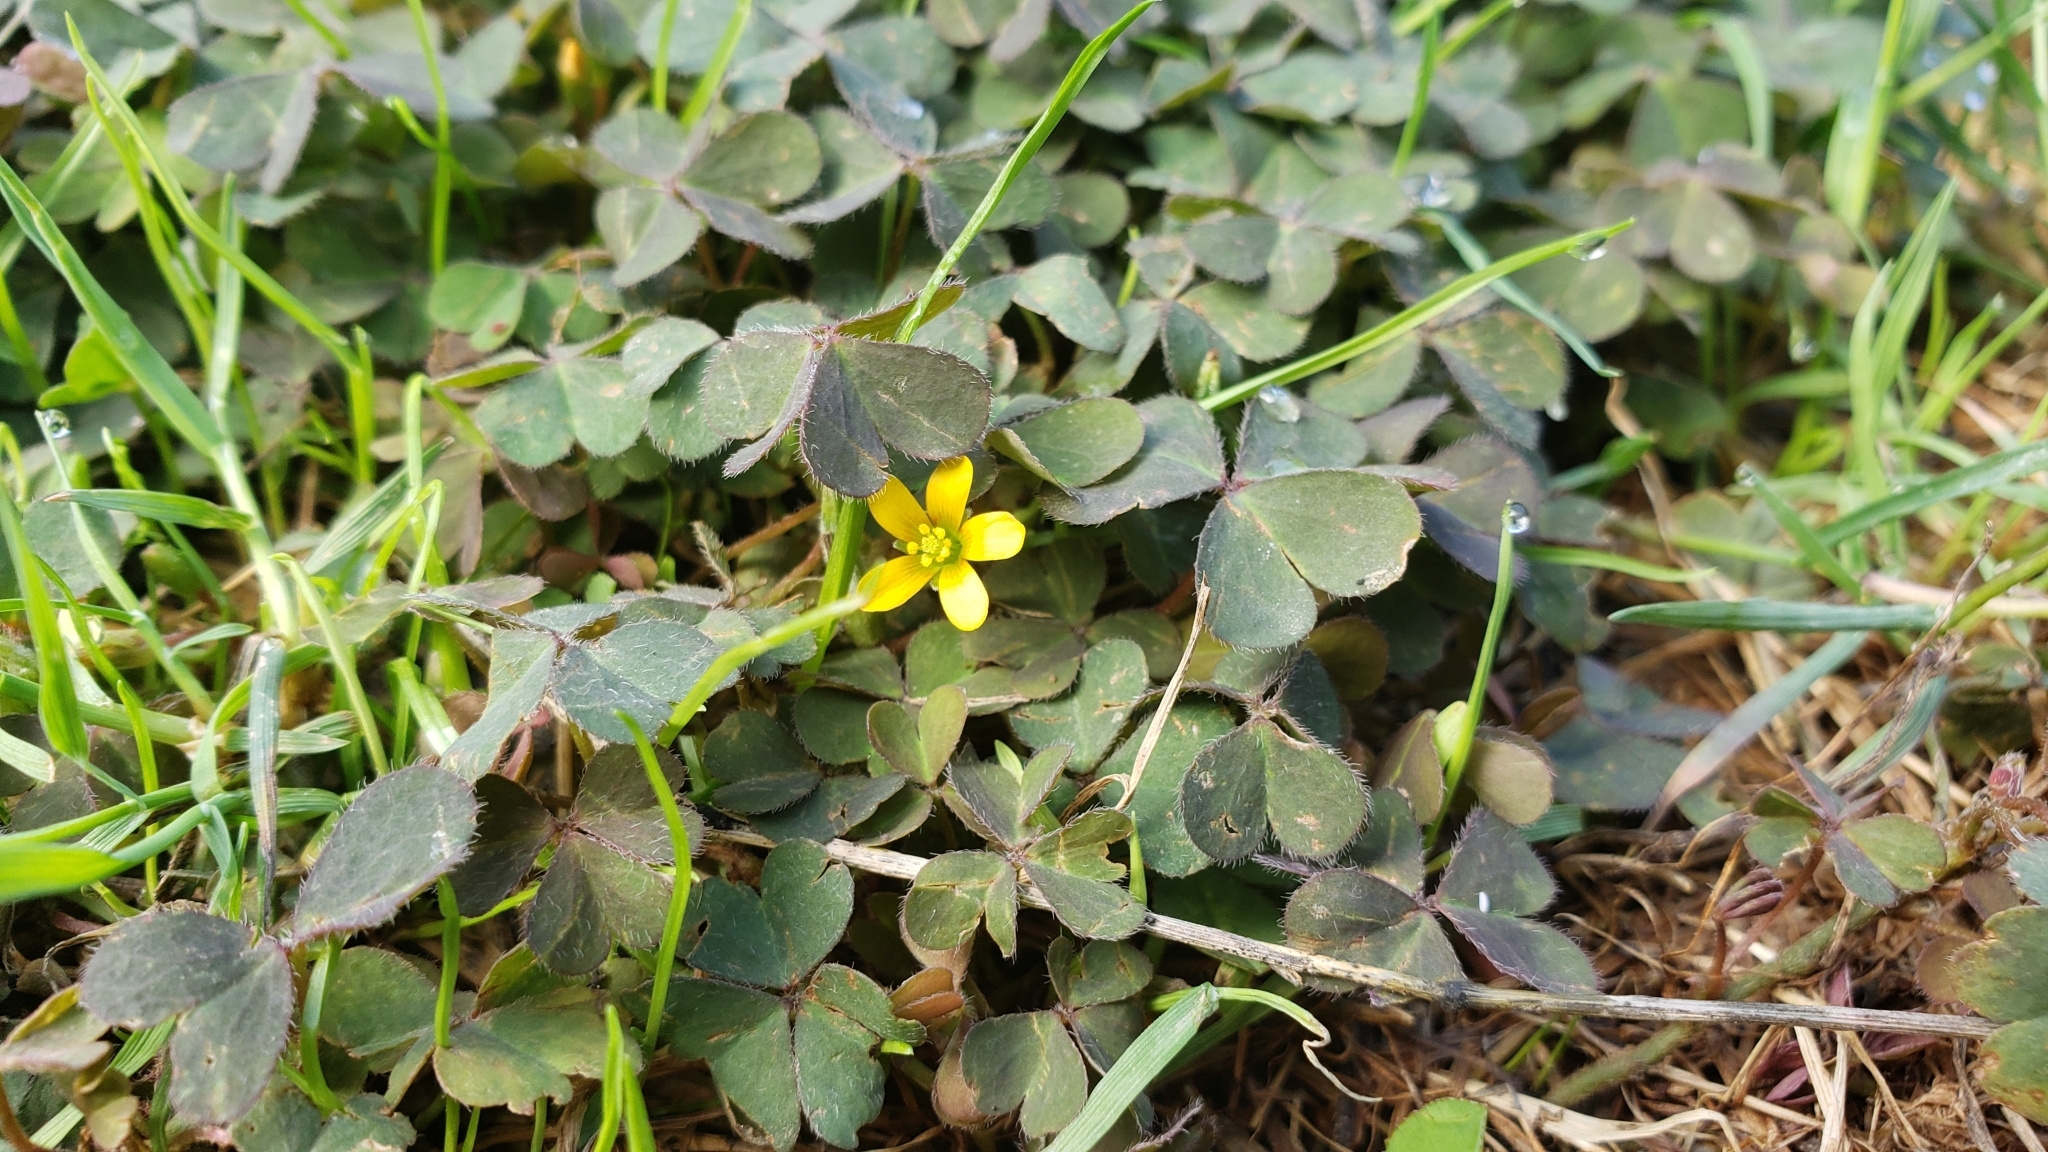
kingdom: Plantae
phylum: Tracheophyta
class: Magnoliopsida
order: Oxalidales
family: Oxalidaceae
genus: Oxalis
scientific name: Oxalis corniculata
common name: Procumbent yellow-sorrel
